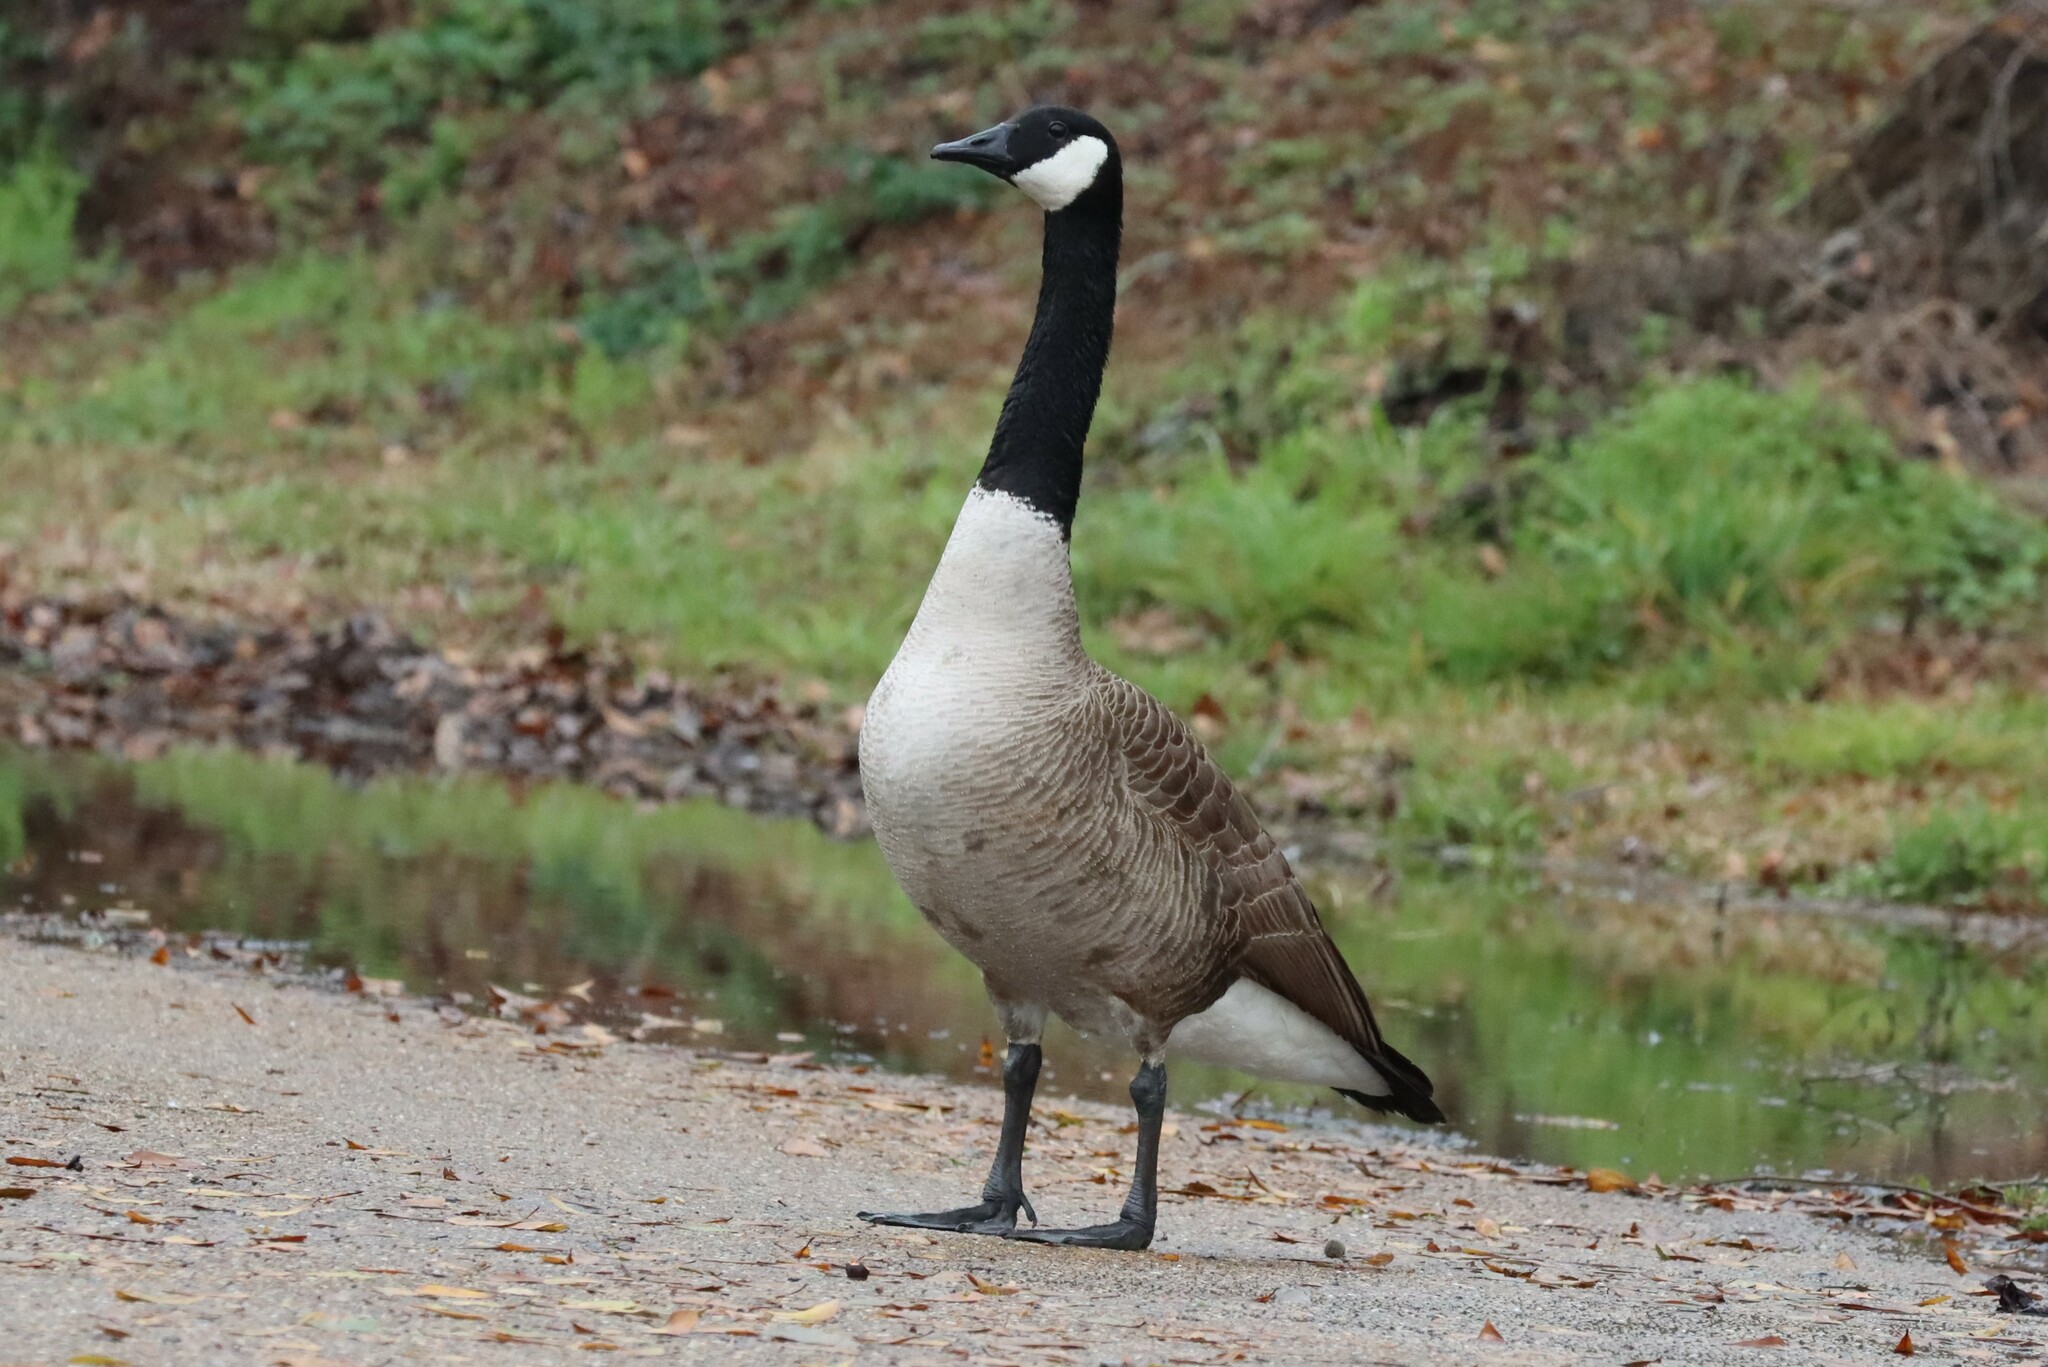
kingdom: Animalia
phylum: Chordata
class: Aves
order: Anseriformes
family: Anatidae
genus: Branta
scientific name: Branta canadensis
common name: Canada goose
